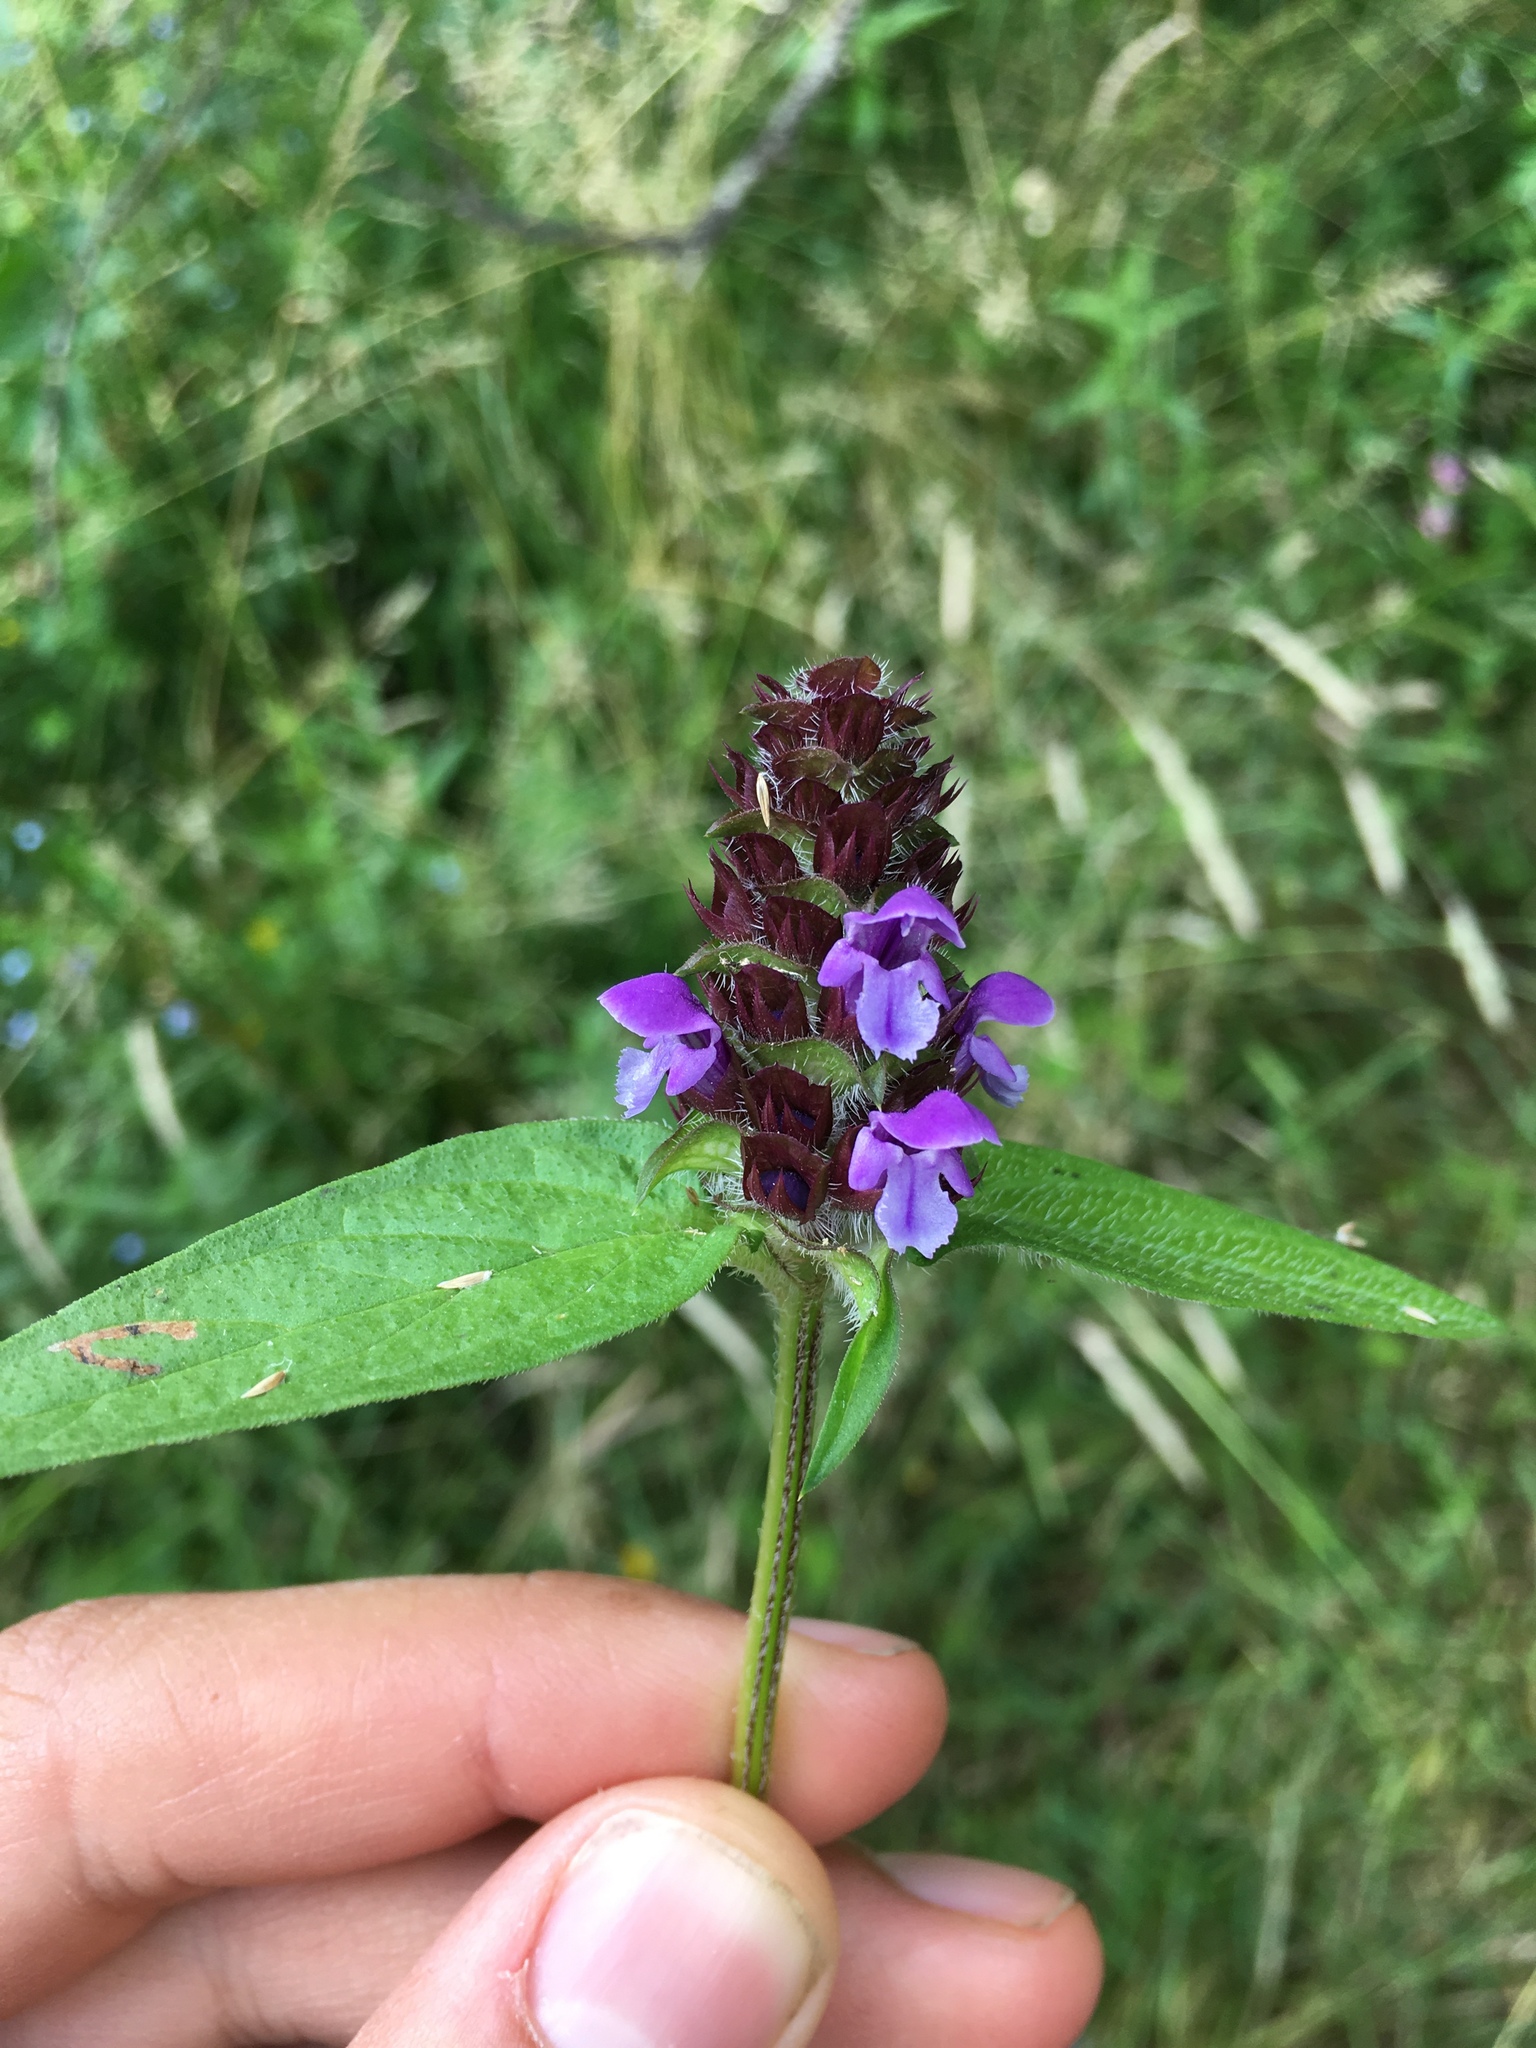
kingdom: Plantae
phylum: Tracheophyta
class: Magnoliopsida
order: Lamiales
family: Lamiaceae
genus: Prunella
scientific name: Prunella vulgaris
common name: Heal-all
